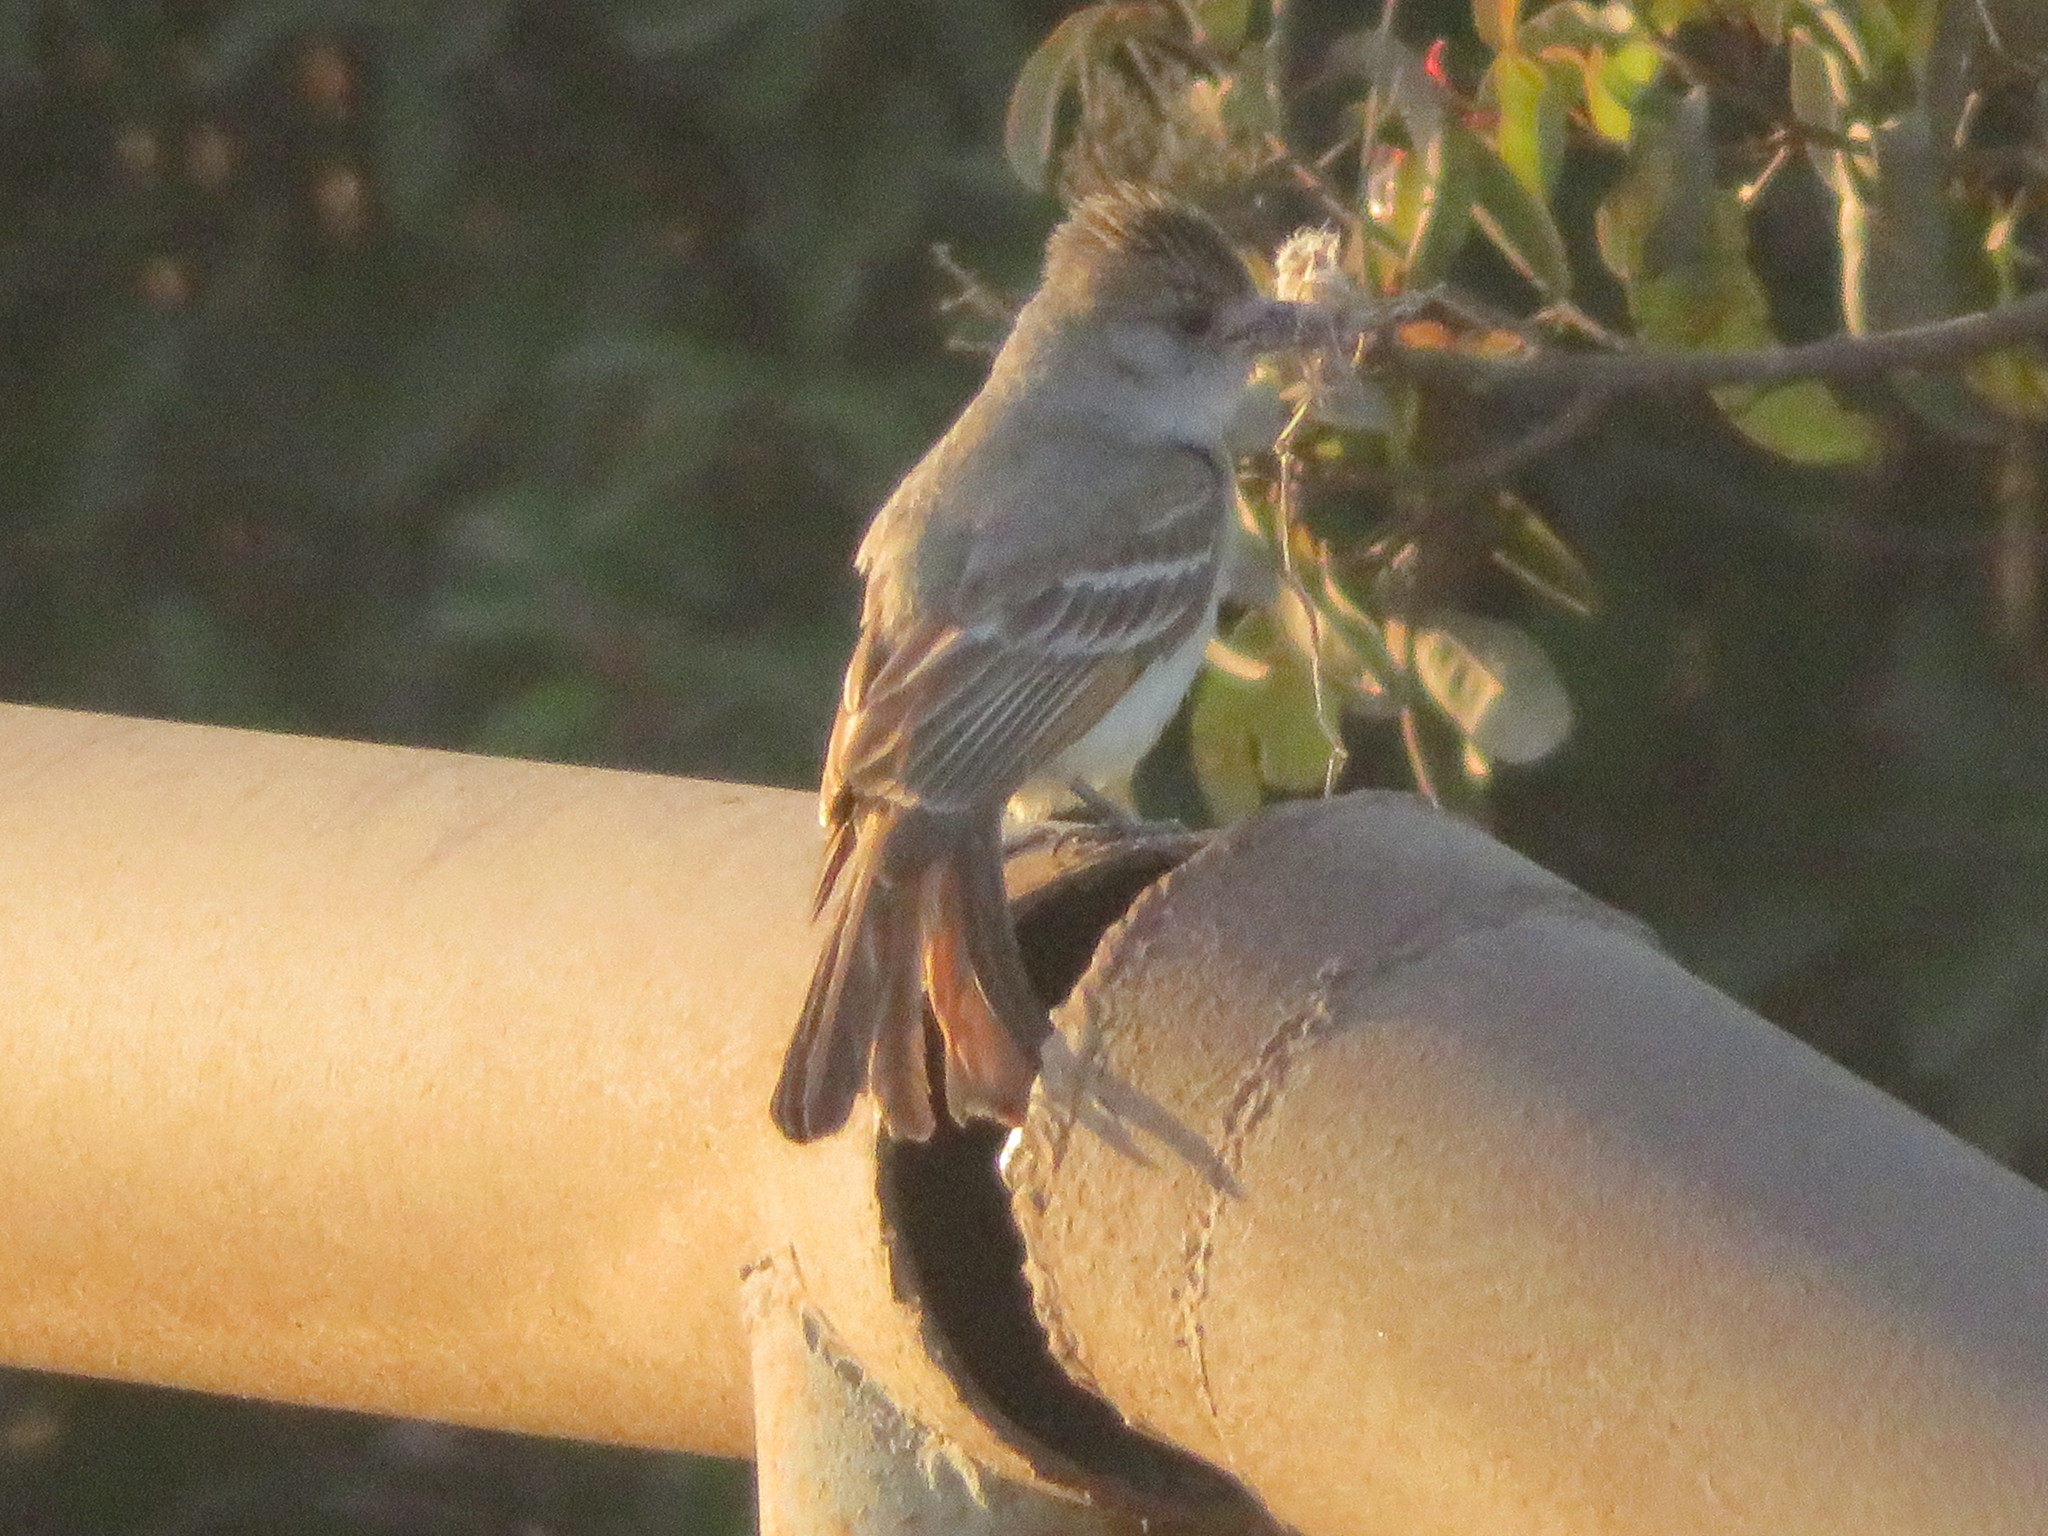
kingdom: Animalia
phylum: Chordata
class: Aves
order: Passeriformes
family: Tyrannidae
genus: Myiarchus
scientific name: Myiarchus cinerascens
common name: Ash-throated flycatcher
